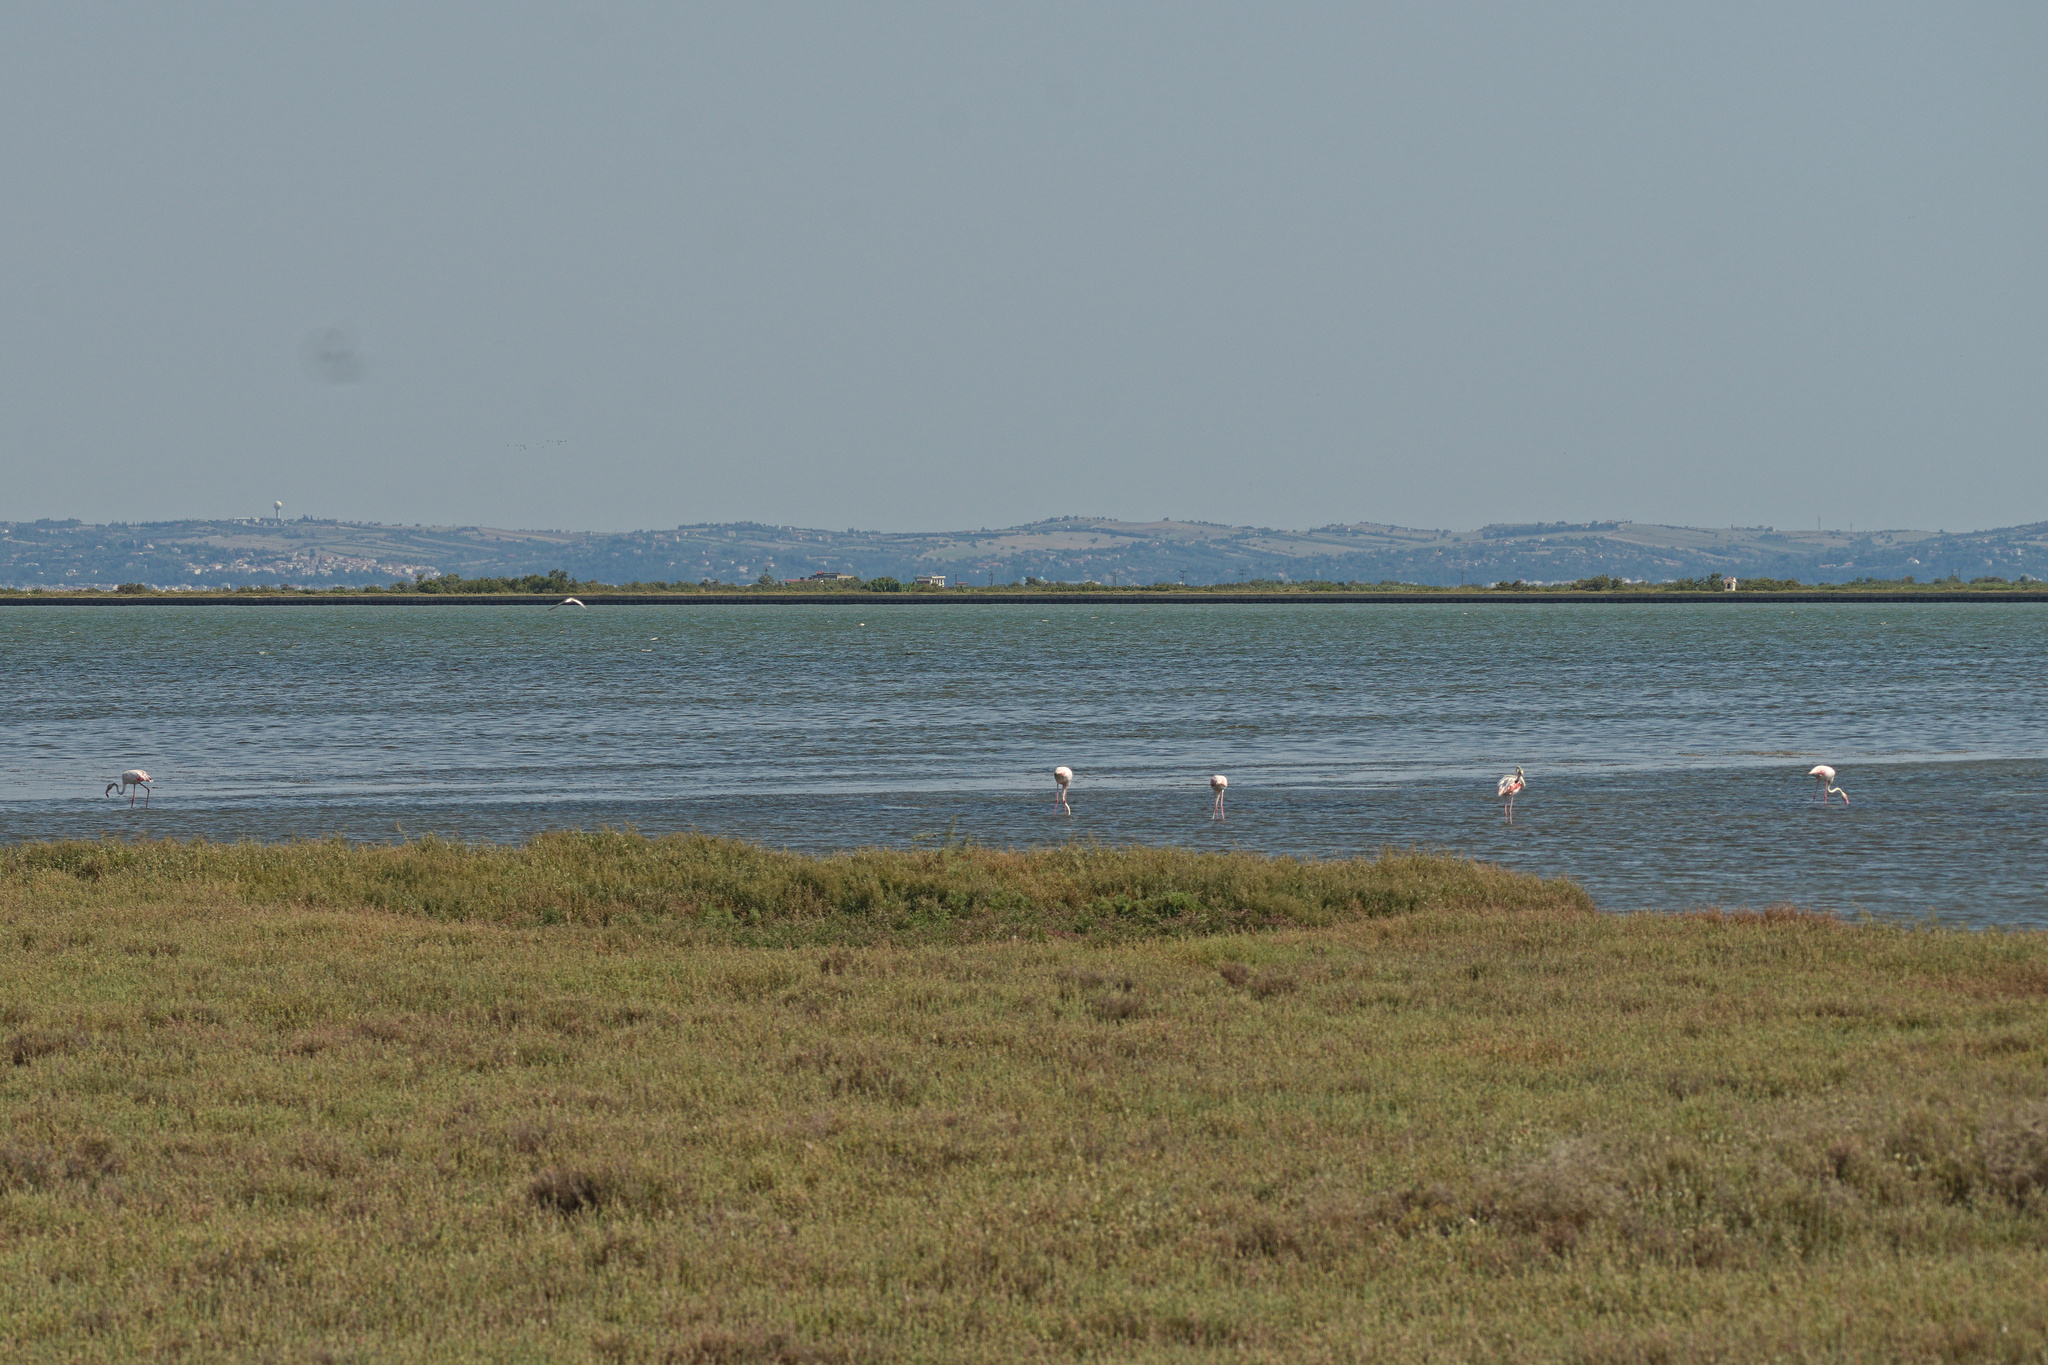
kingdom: Animalia
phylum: Chordata
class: Aves
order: Phoenicopteriformes
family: Phoenicopteridae
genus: Phoenicopterus
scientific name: Phoenicopterus roseus
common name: Greater flamingo
